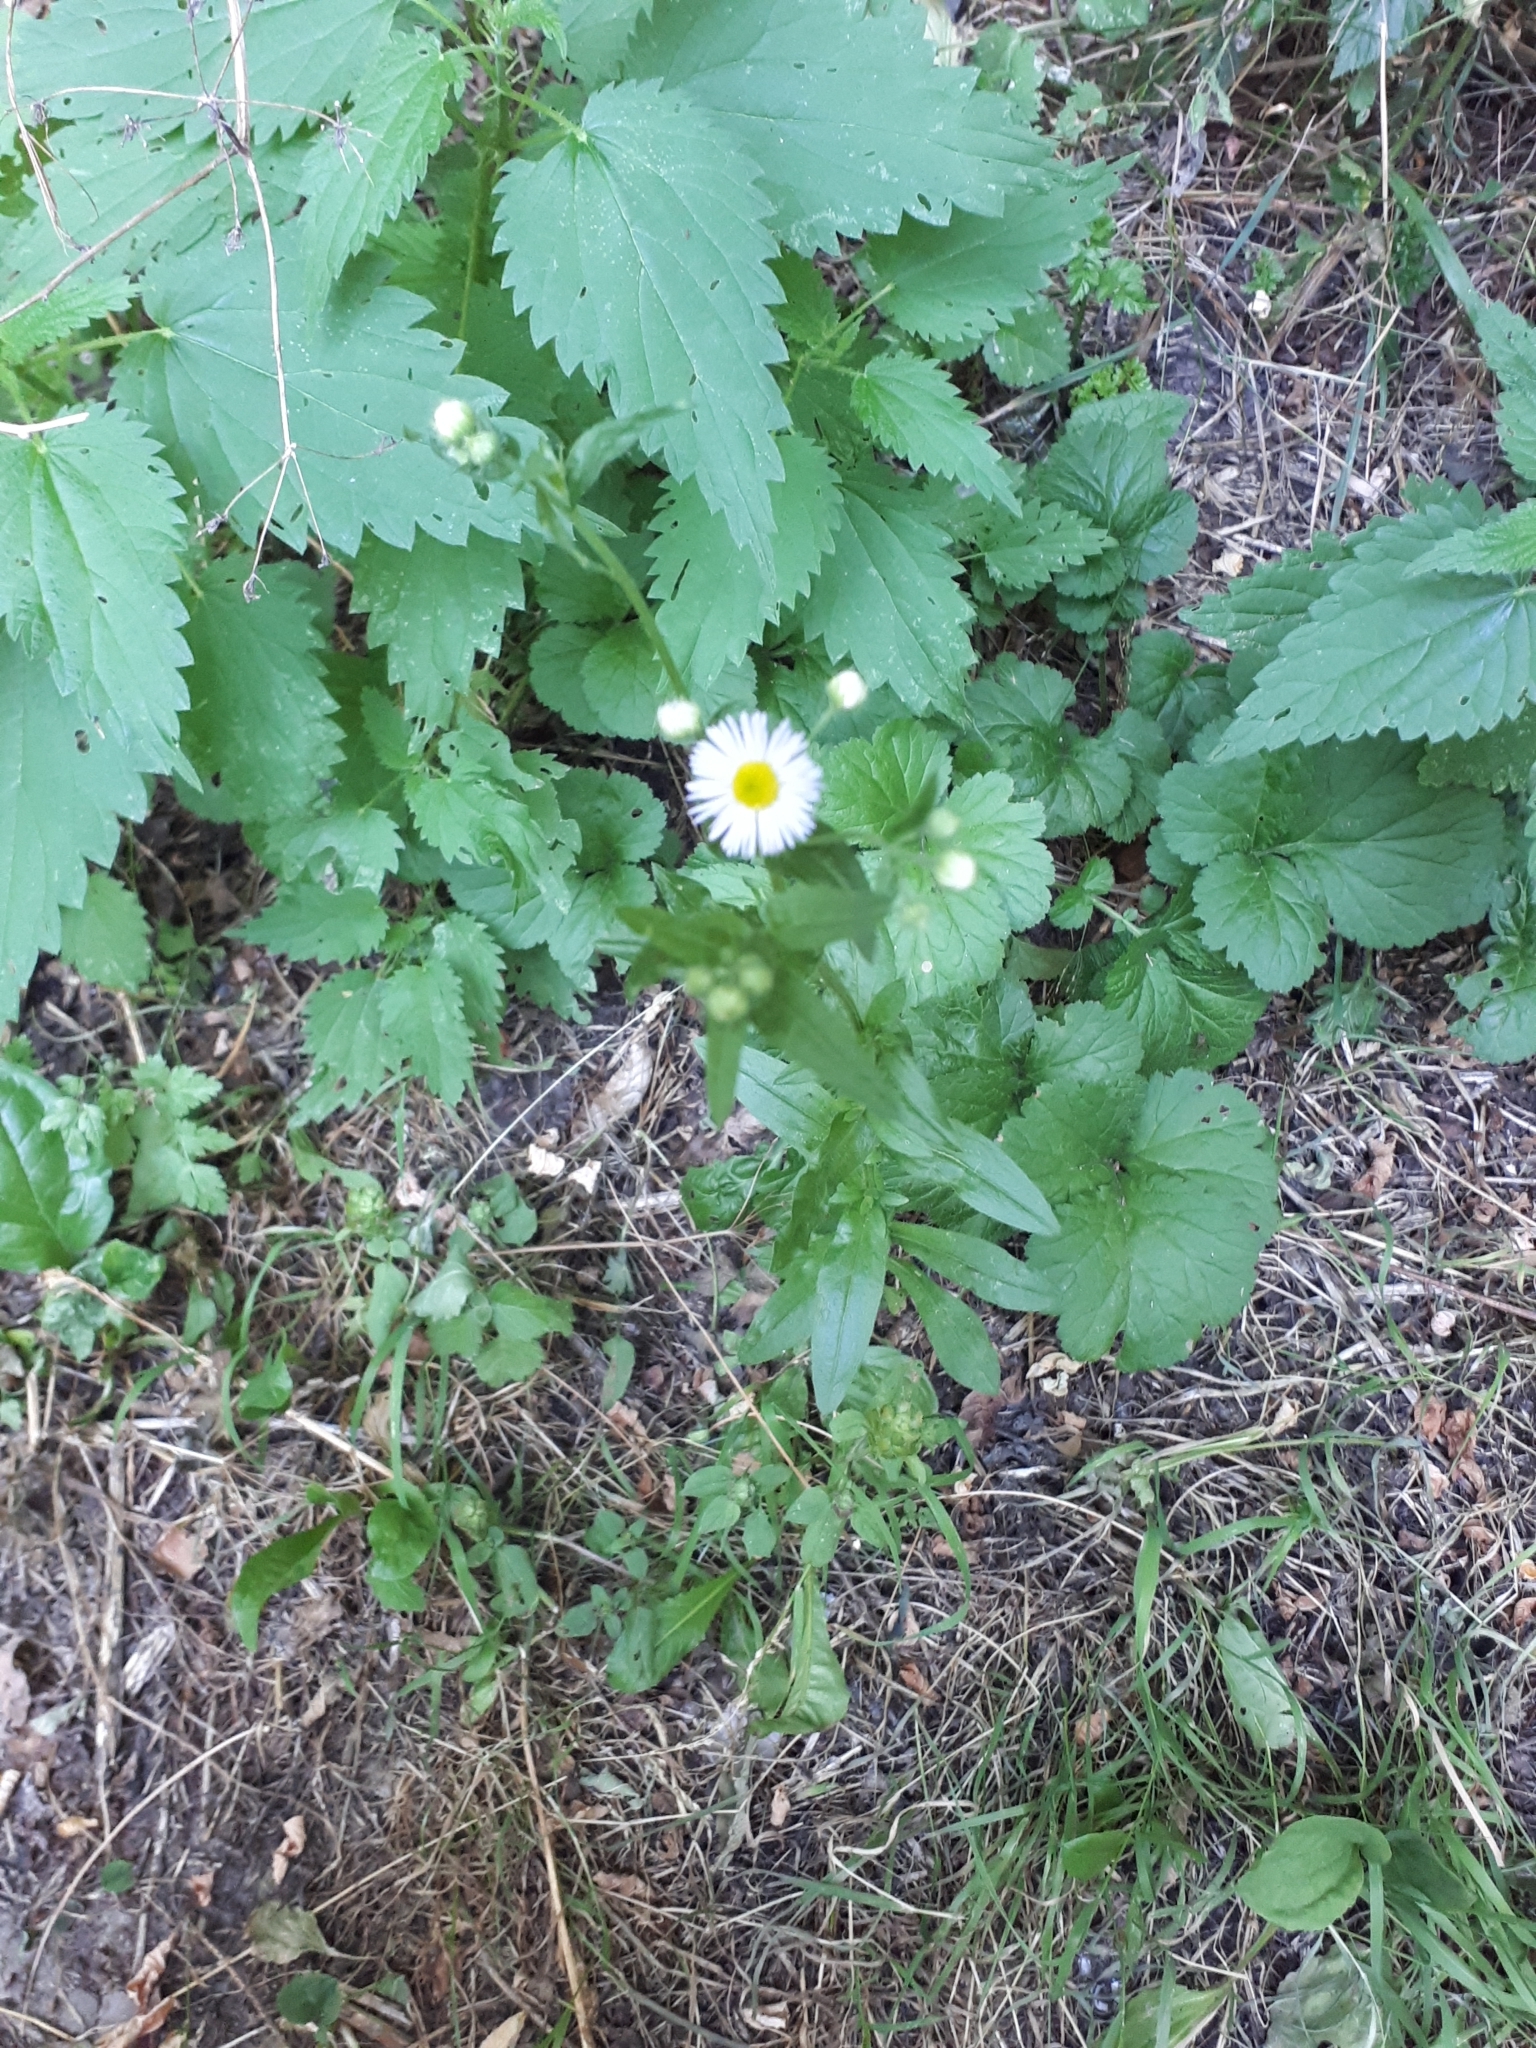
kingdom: Plantae
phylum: Tracheophyta
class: Magnoliopsida
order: Asterales
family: Asteraceae
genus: Erigeron
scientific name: Erigeron annuus
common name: Tall fleabane
